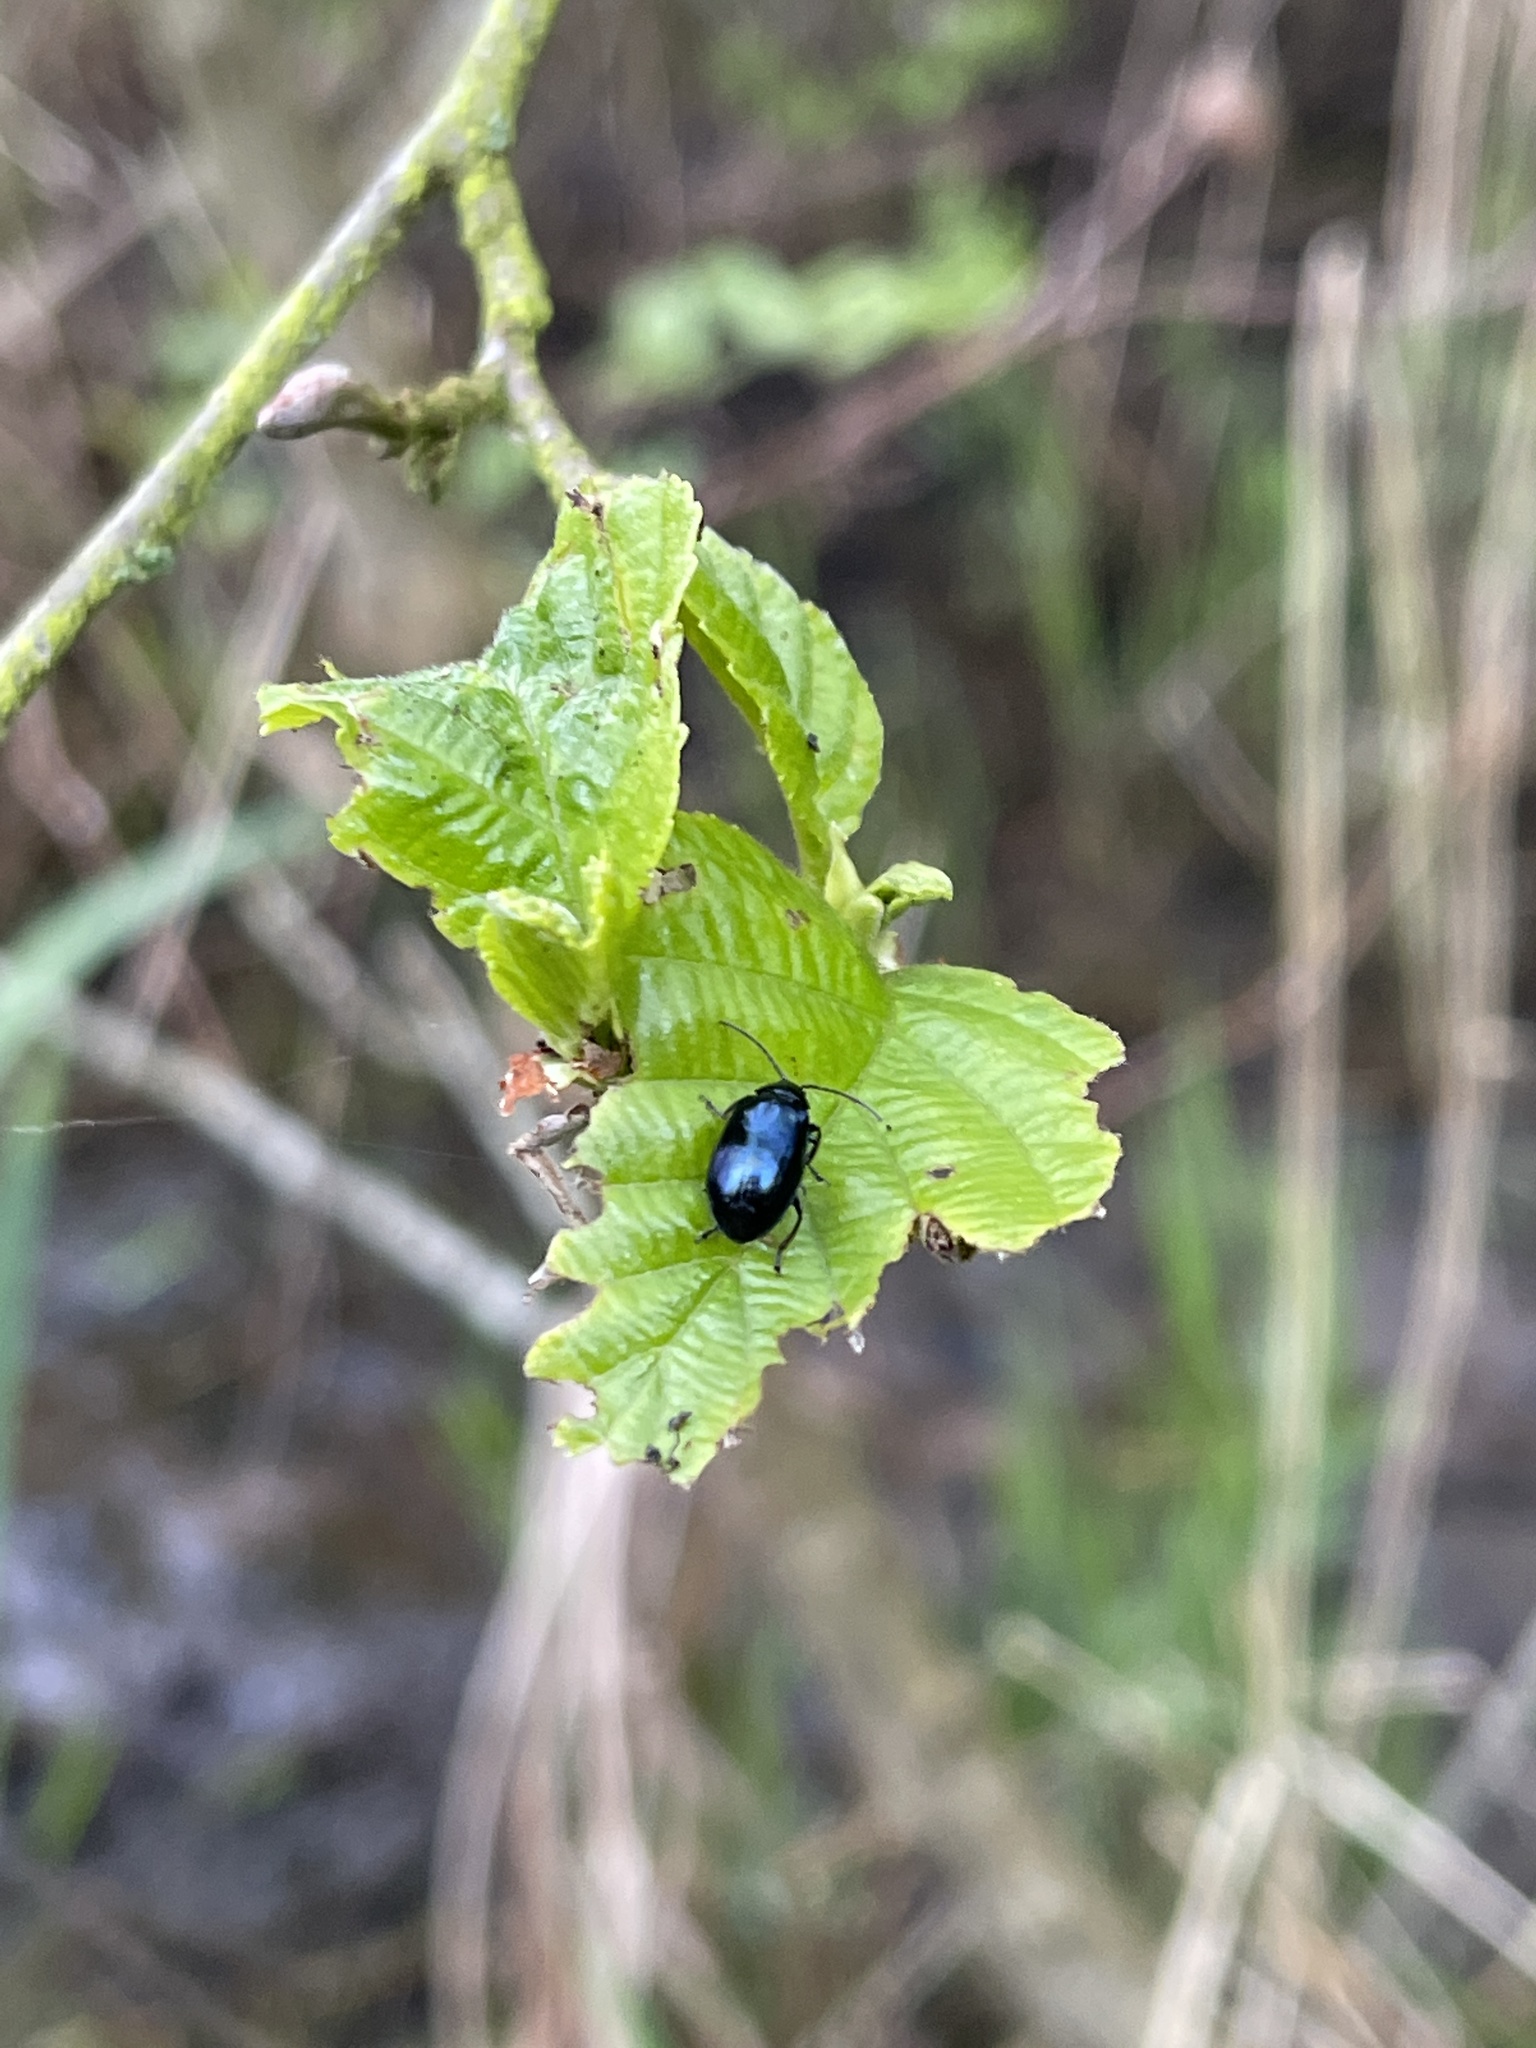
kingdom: Animalia
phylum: Arthropoda
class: Insecta
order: Coleoptera
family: Chrysomelidae
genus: Agelastica
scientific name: Agelastica alni
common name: Alder leaf beetle
